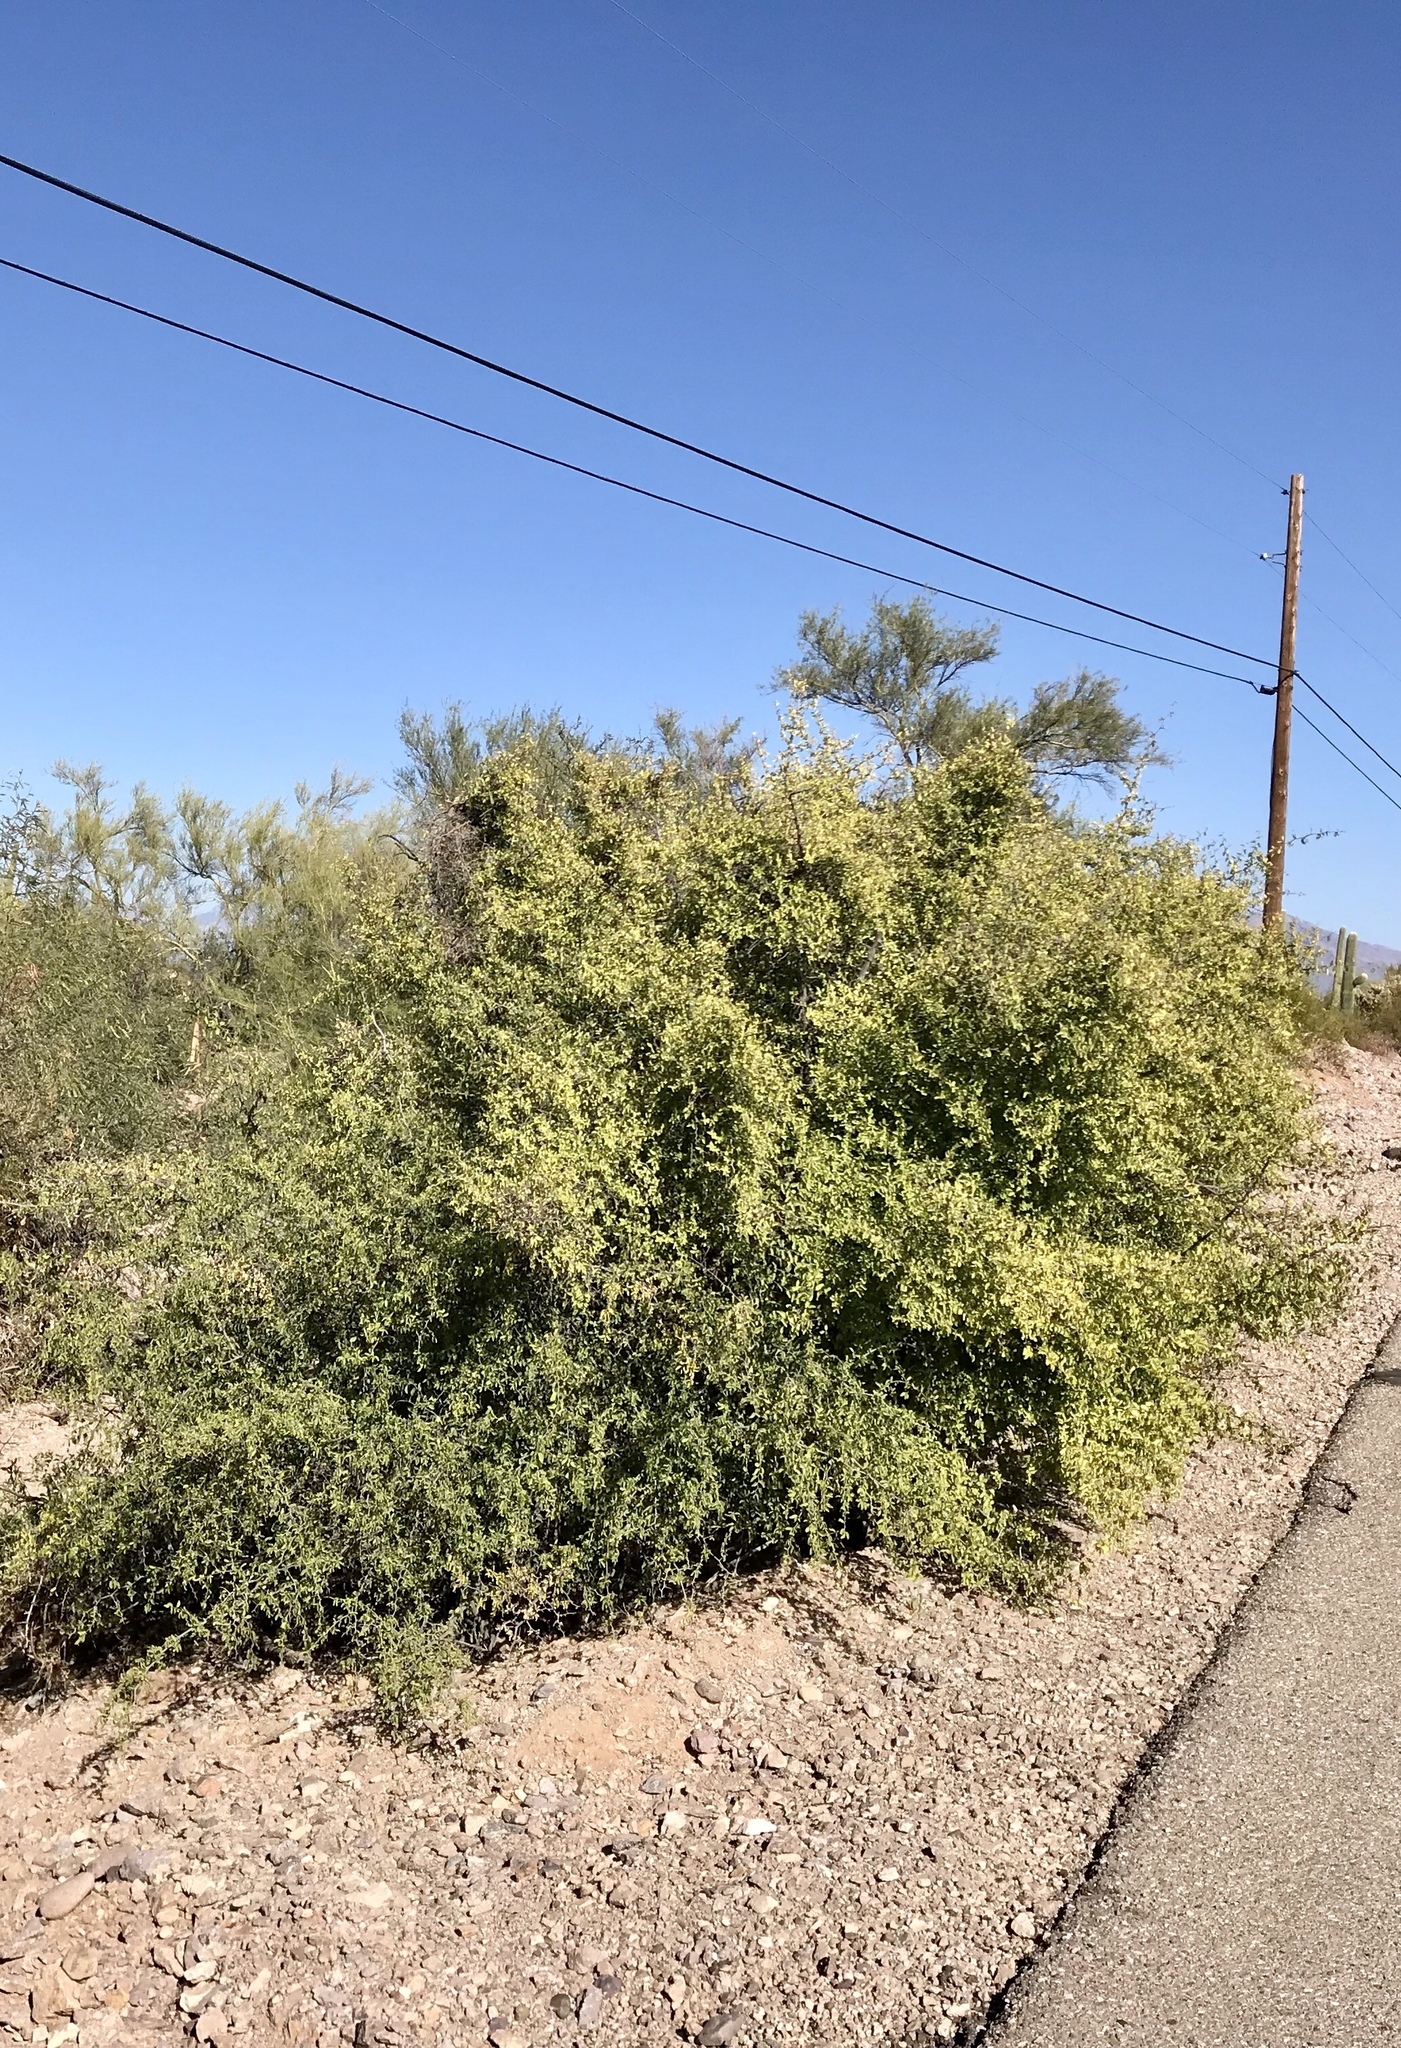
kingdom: Plantae
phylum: Tracheophyta
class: Magnoliopsida
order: Rosales
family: Cannabaceae
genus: Celtis
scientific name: Celtis pallida
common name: Desert hackberry
